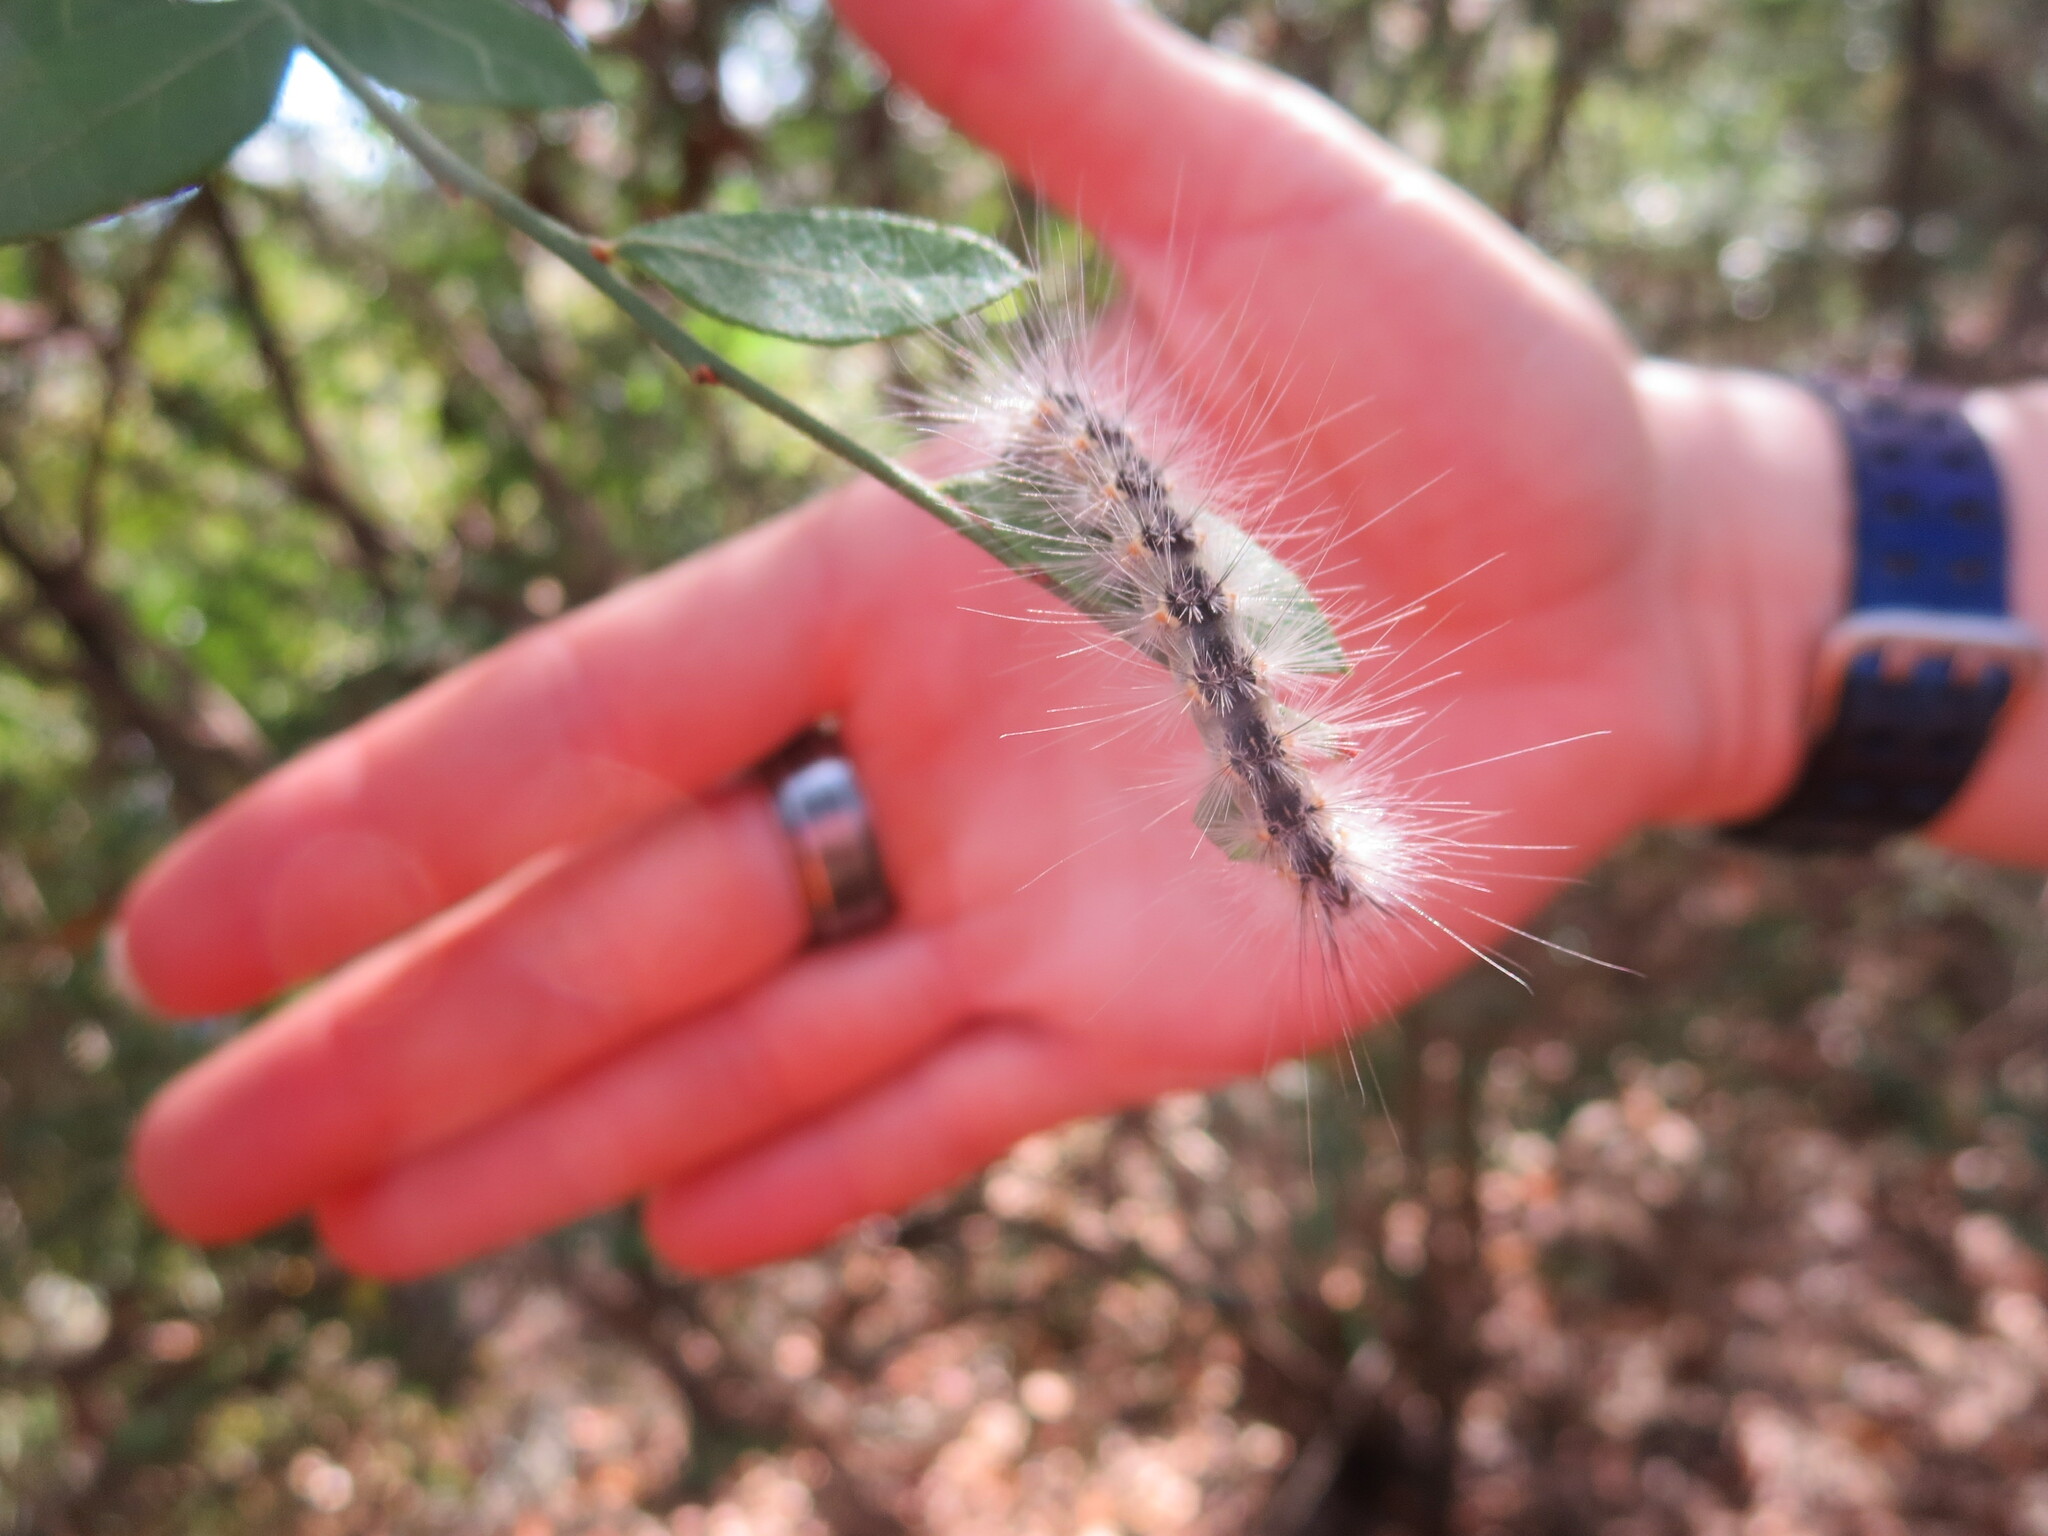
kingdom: Animalia
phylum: Arthropoda
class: Insecta
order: Lepidoptera
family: Erebidae
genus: Hyphantria
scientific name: Hyphantria cunea
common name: American white moth
